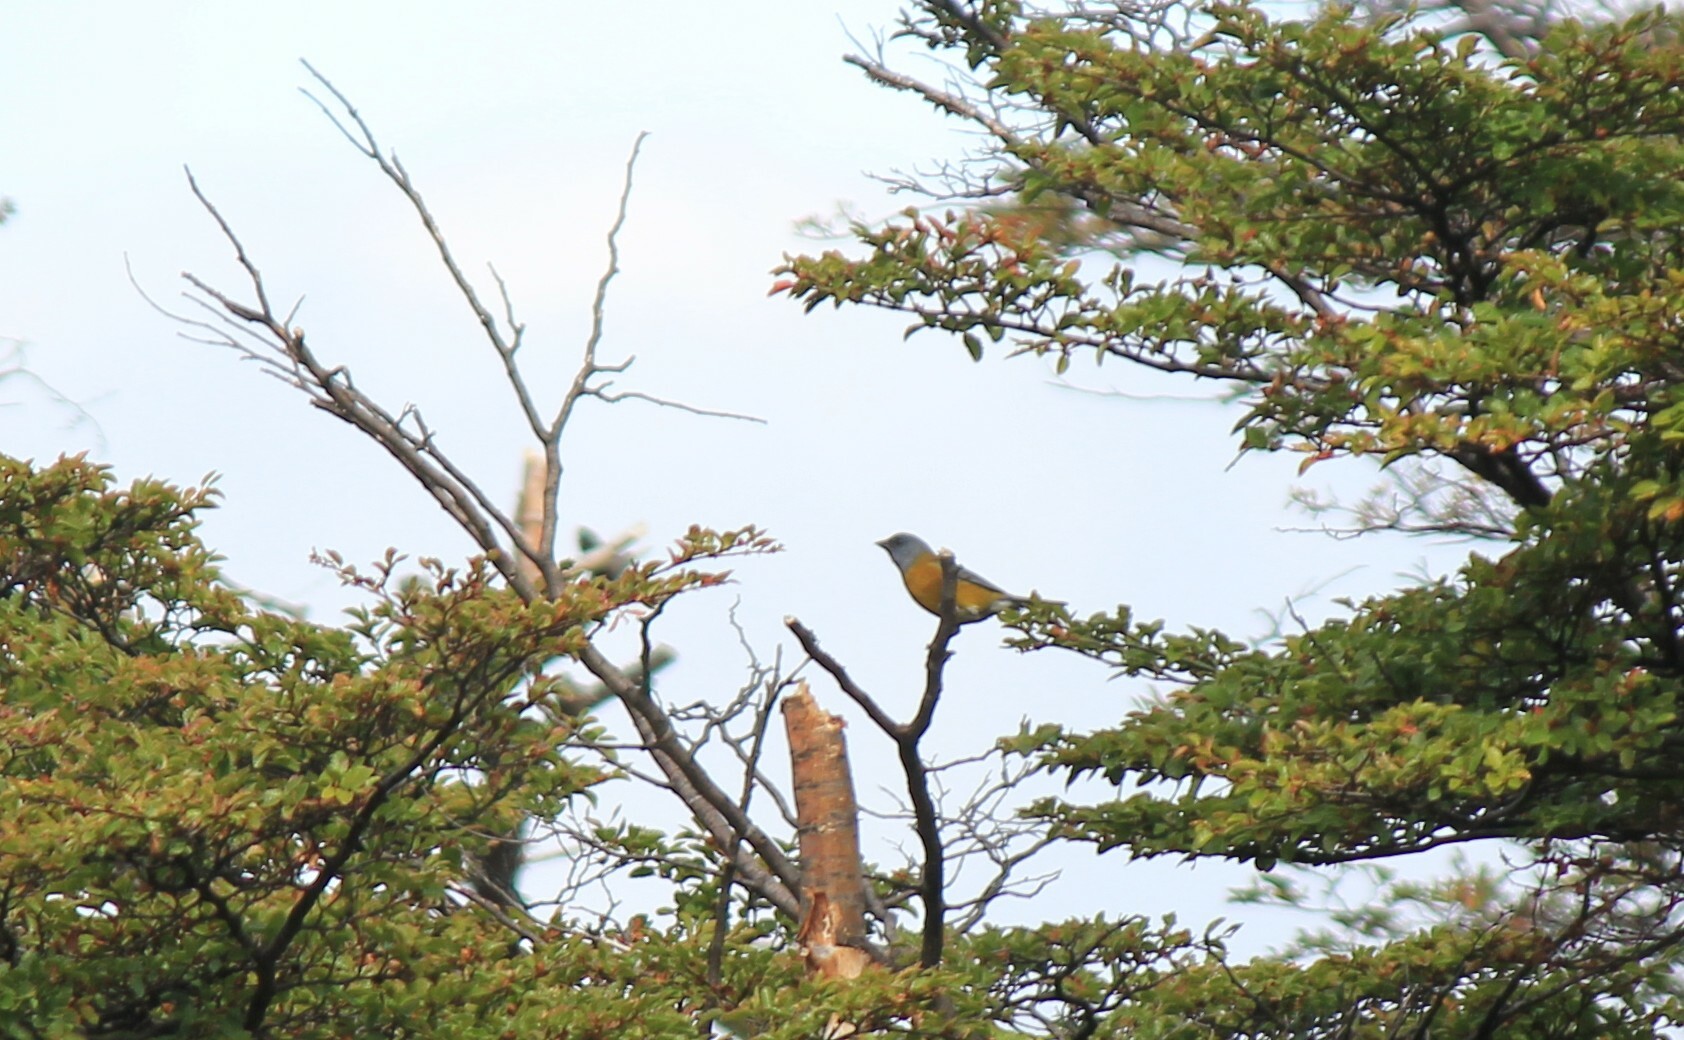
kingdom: Animalia
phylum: Chordata
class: Aves
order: Passeriformes
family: Thraupidae
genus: Phrygilus
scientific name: Phrygilus patagonicus
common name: Patagonian sierra finch
